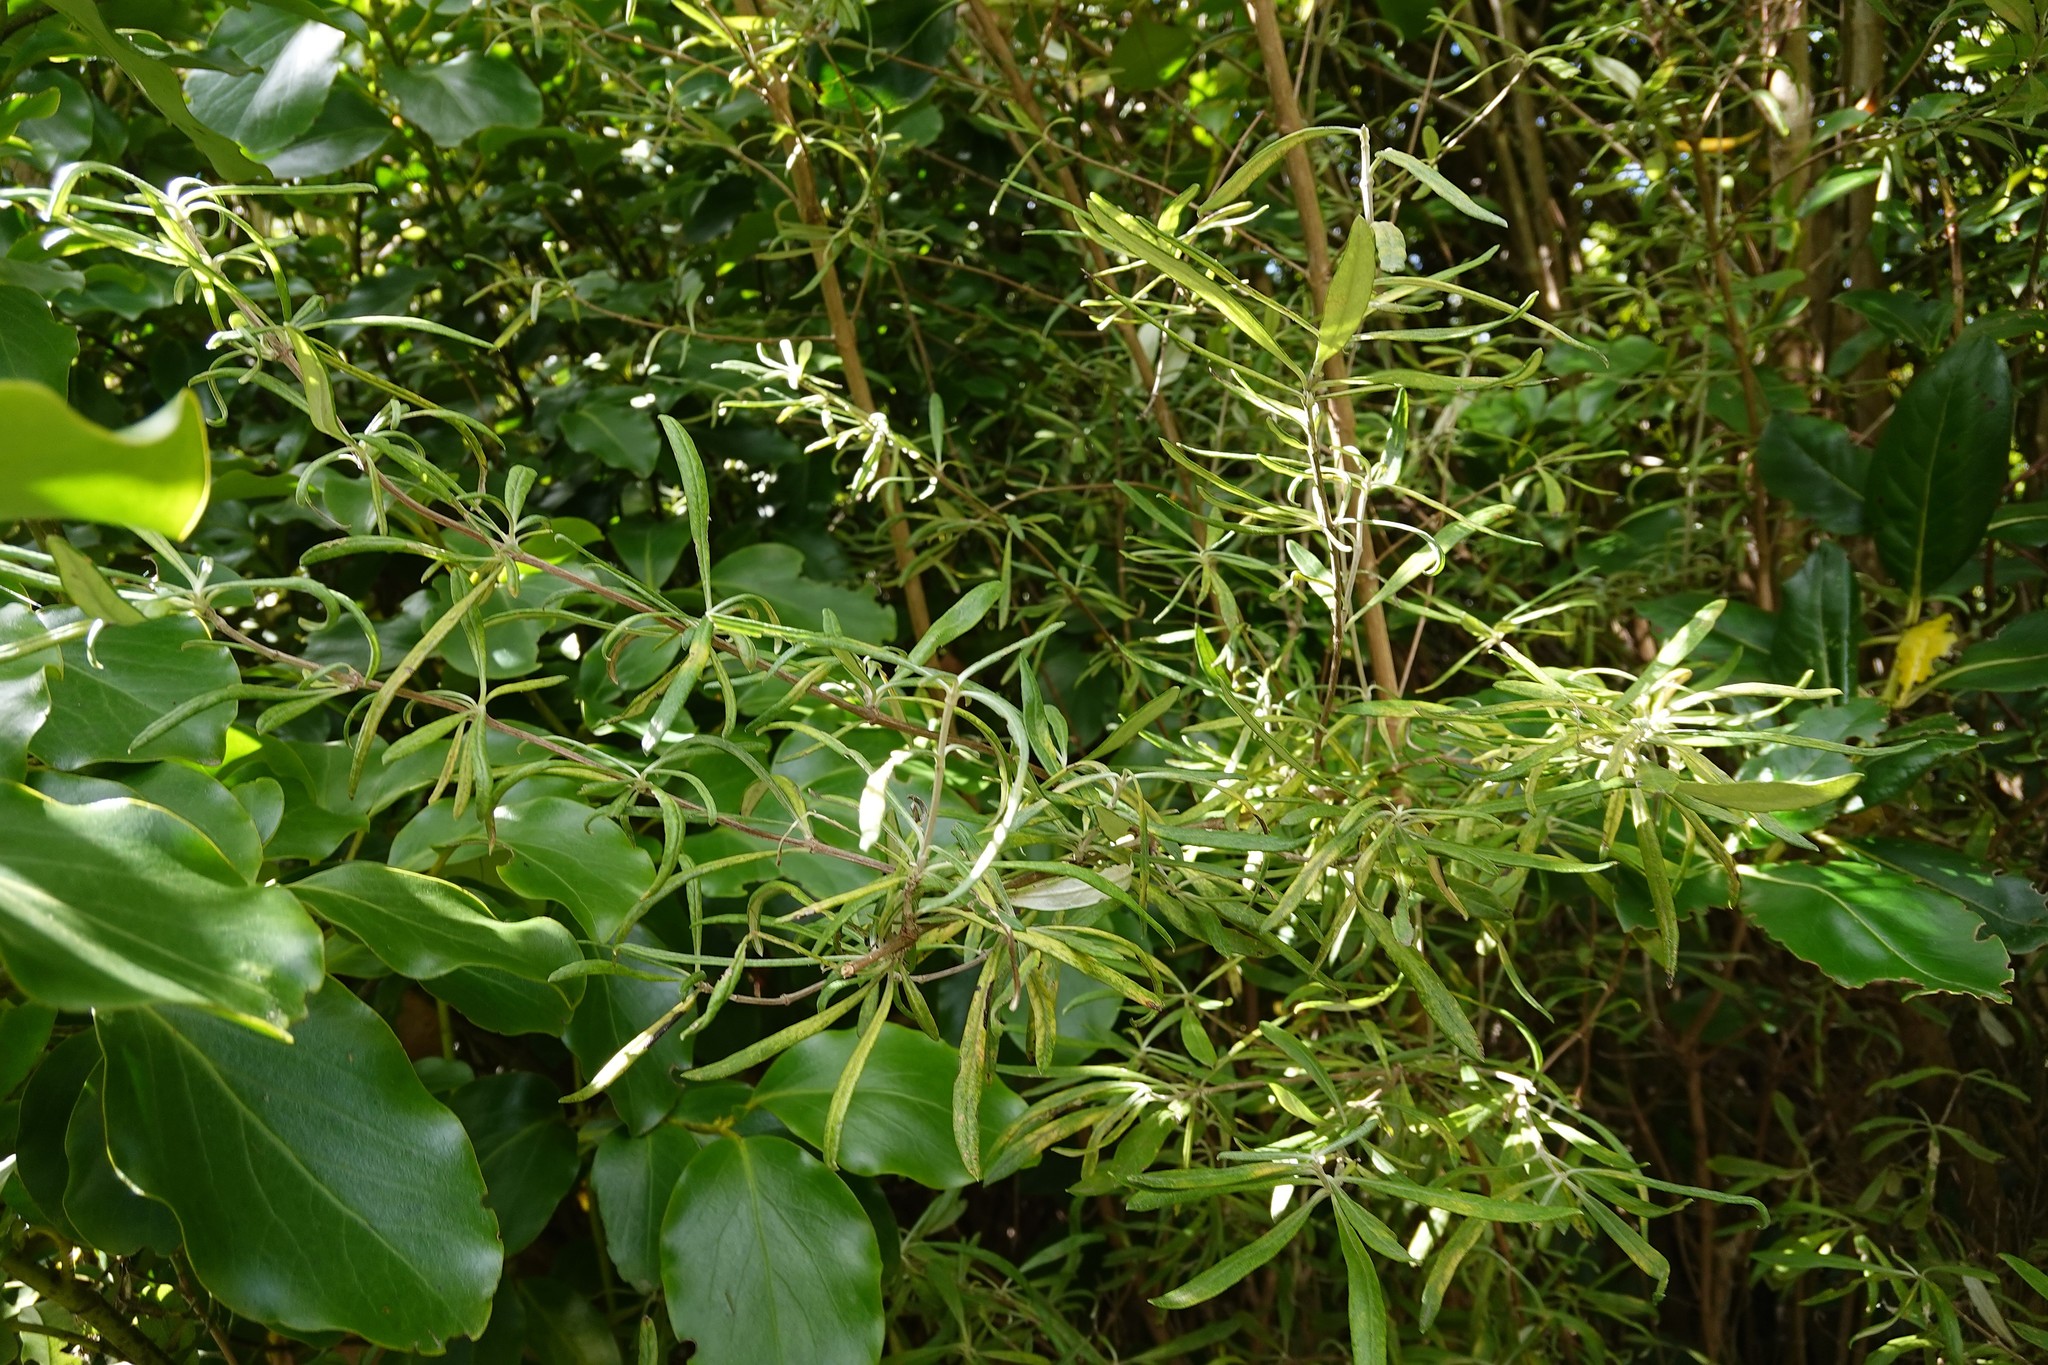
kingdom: Plantae
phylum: Tracheophyta
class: Magnoliopsida
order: Asterales
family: Asteraceae
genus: Olearia
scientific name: Olearia lineata
